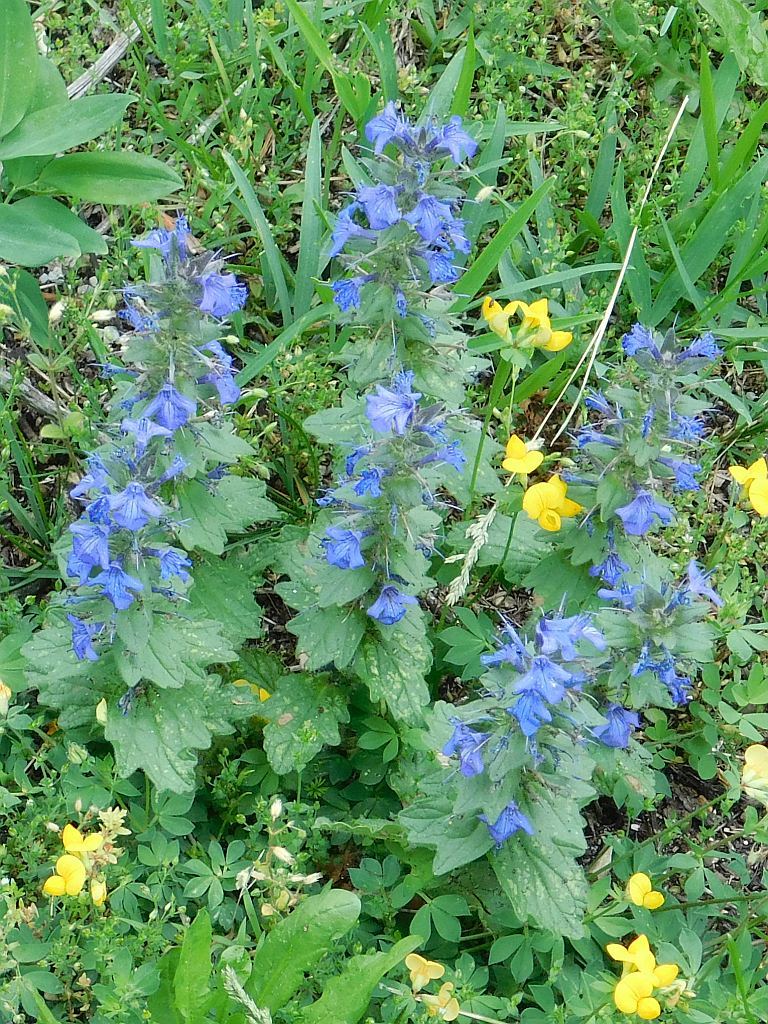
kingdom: Plantae
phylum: Tracheophyta
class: Magnoliopsida
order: Lamiales
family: Lamiaceae
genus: Ajuga
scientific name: Ajuga genevensis
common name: Blue bugle
